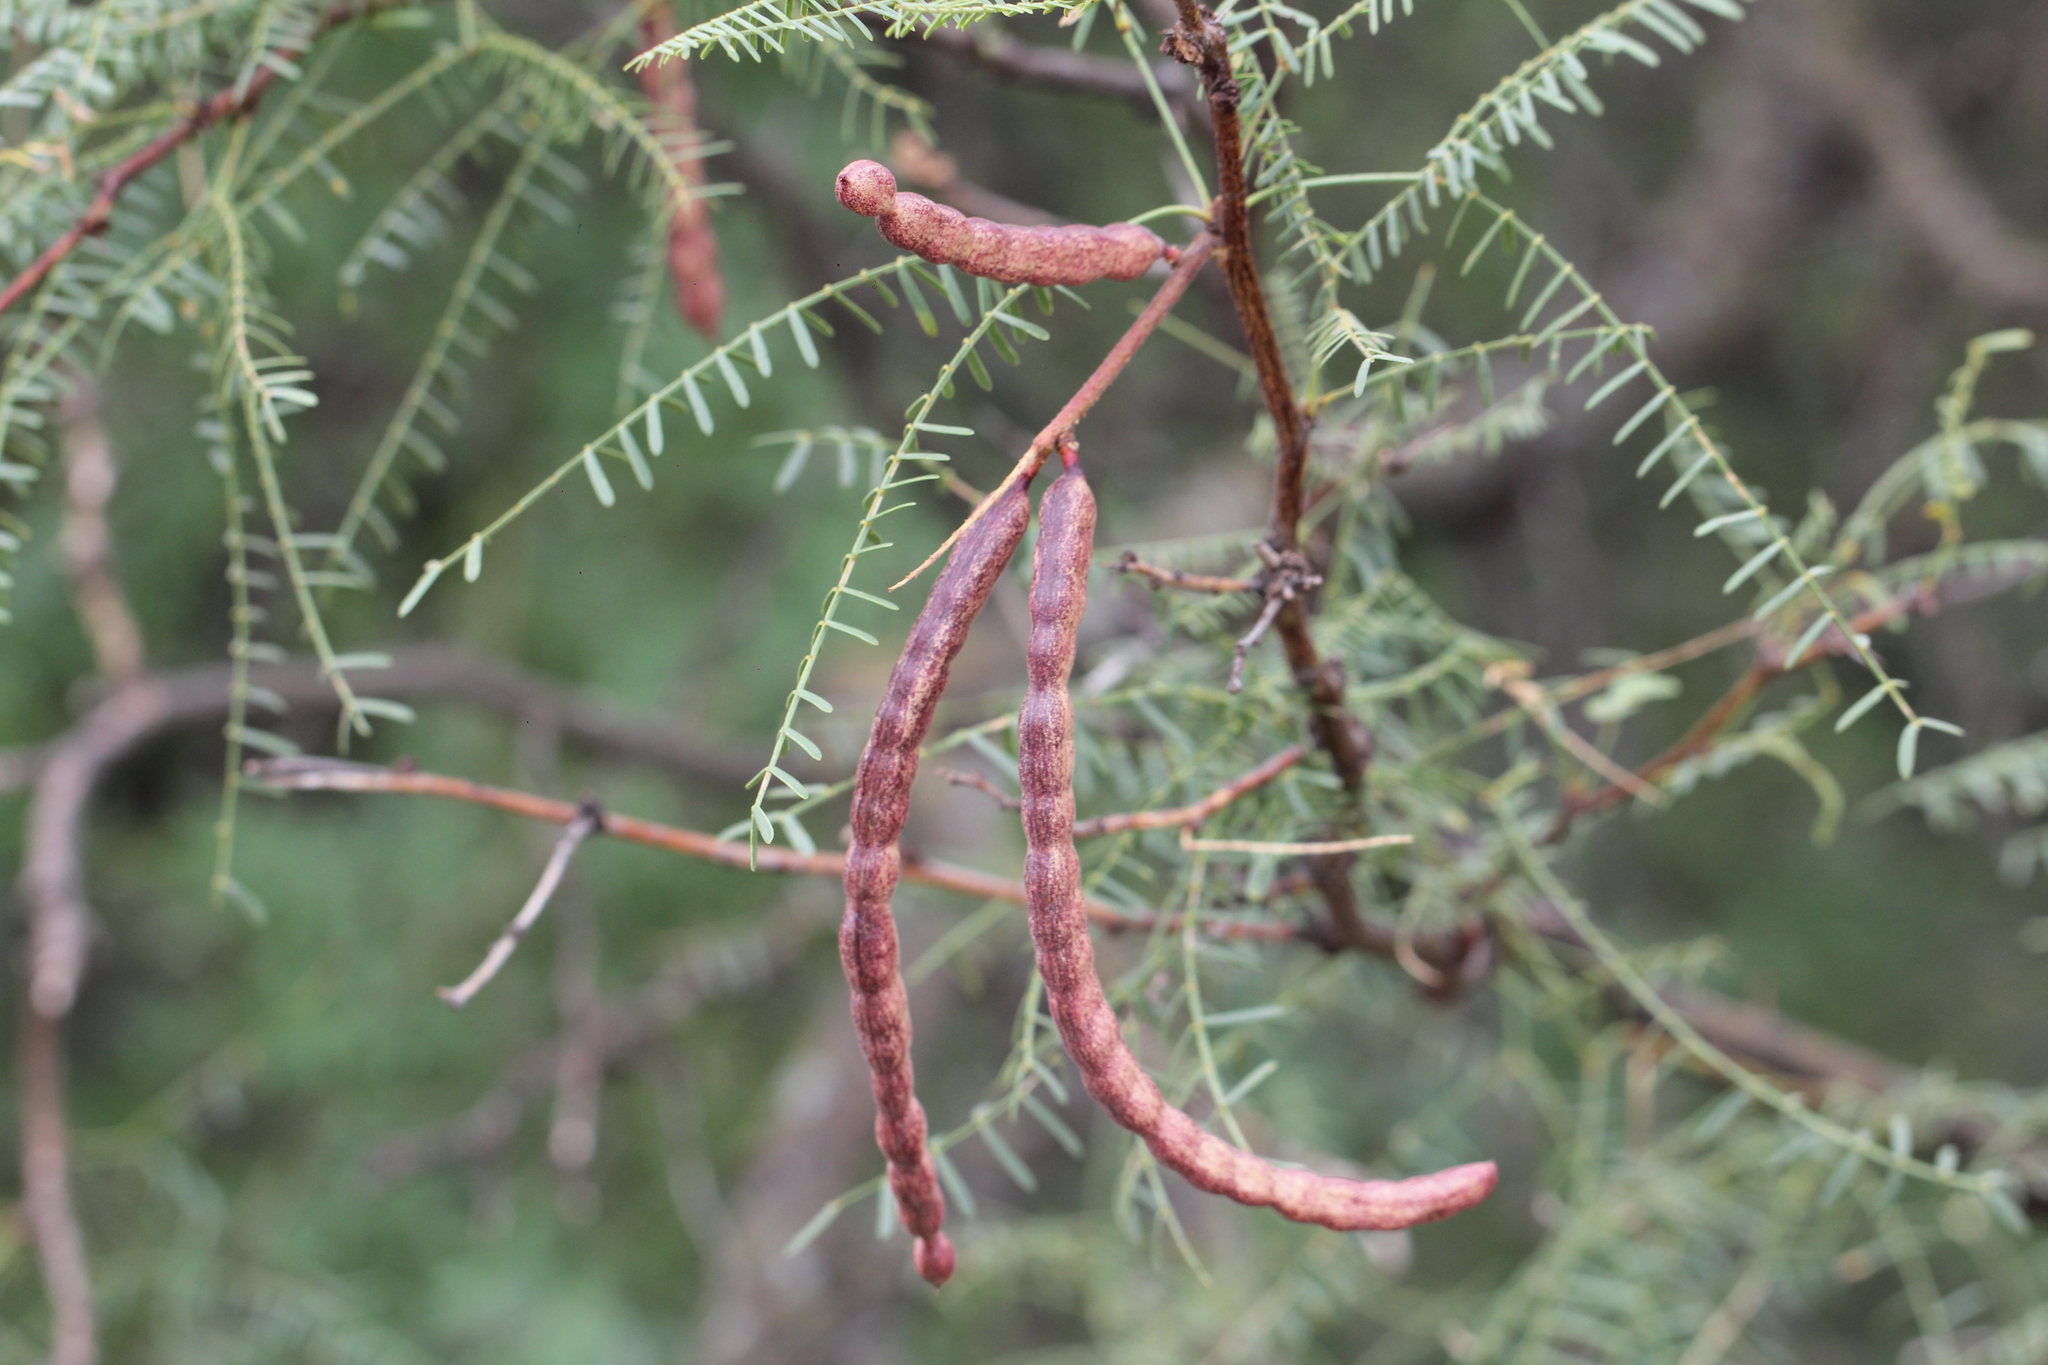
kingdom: Plantae
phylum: Tracheophyta
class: Magnoliopsida
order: Fabales
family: Fabaceae
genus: Prosopis
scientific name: Prosopis flexuosa
